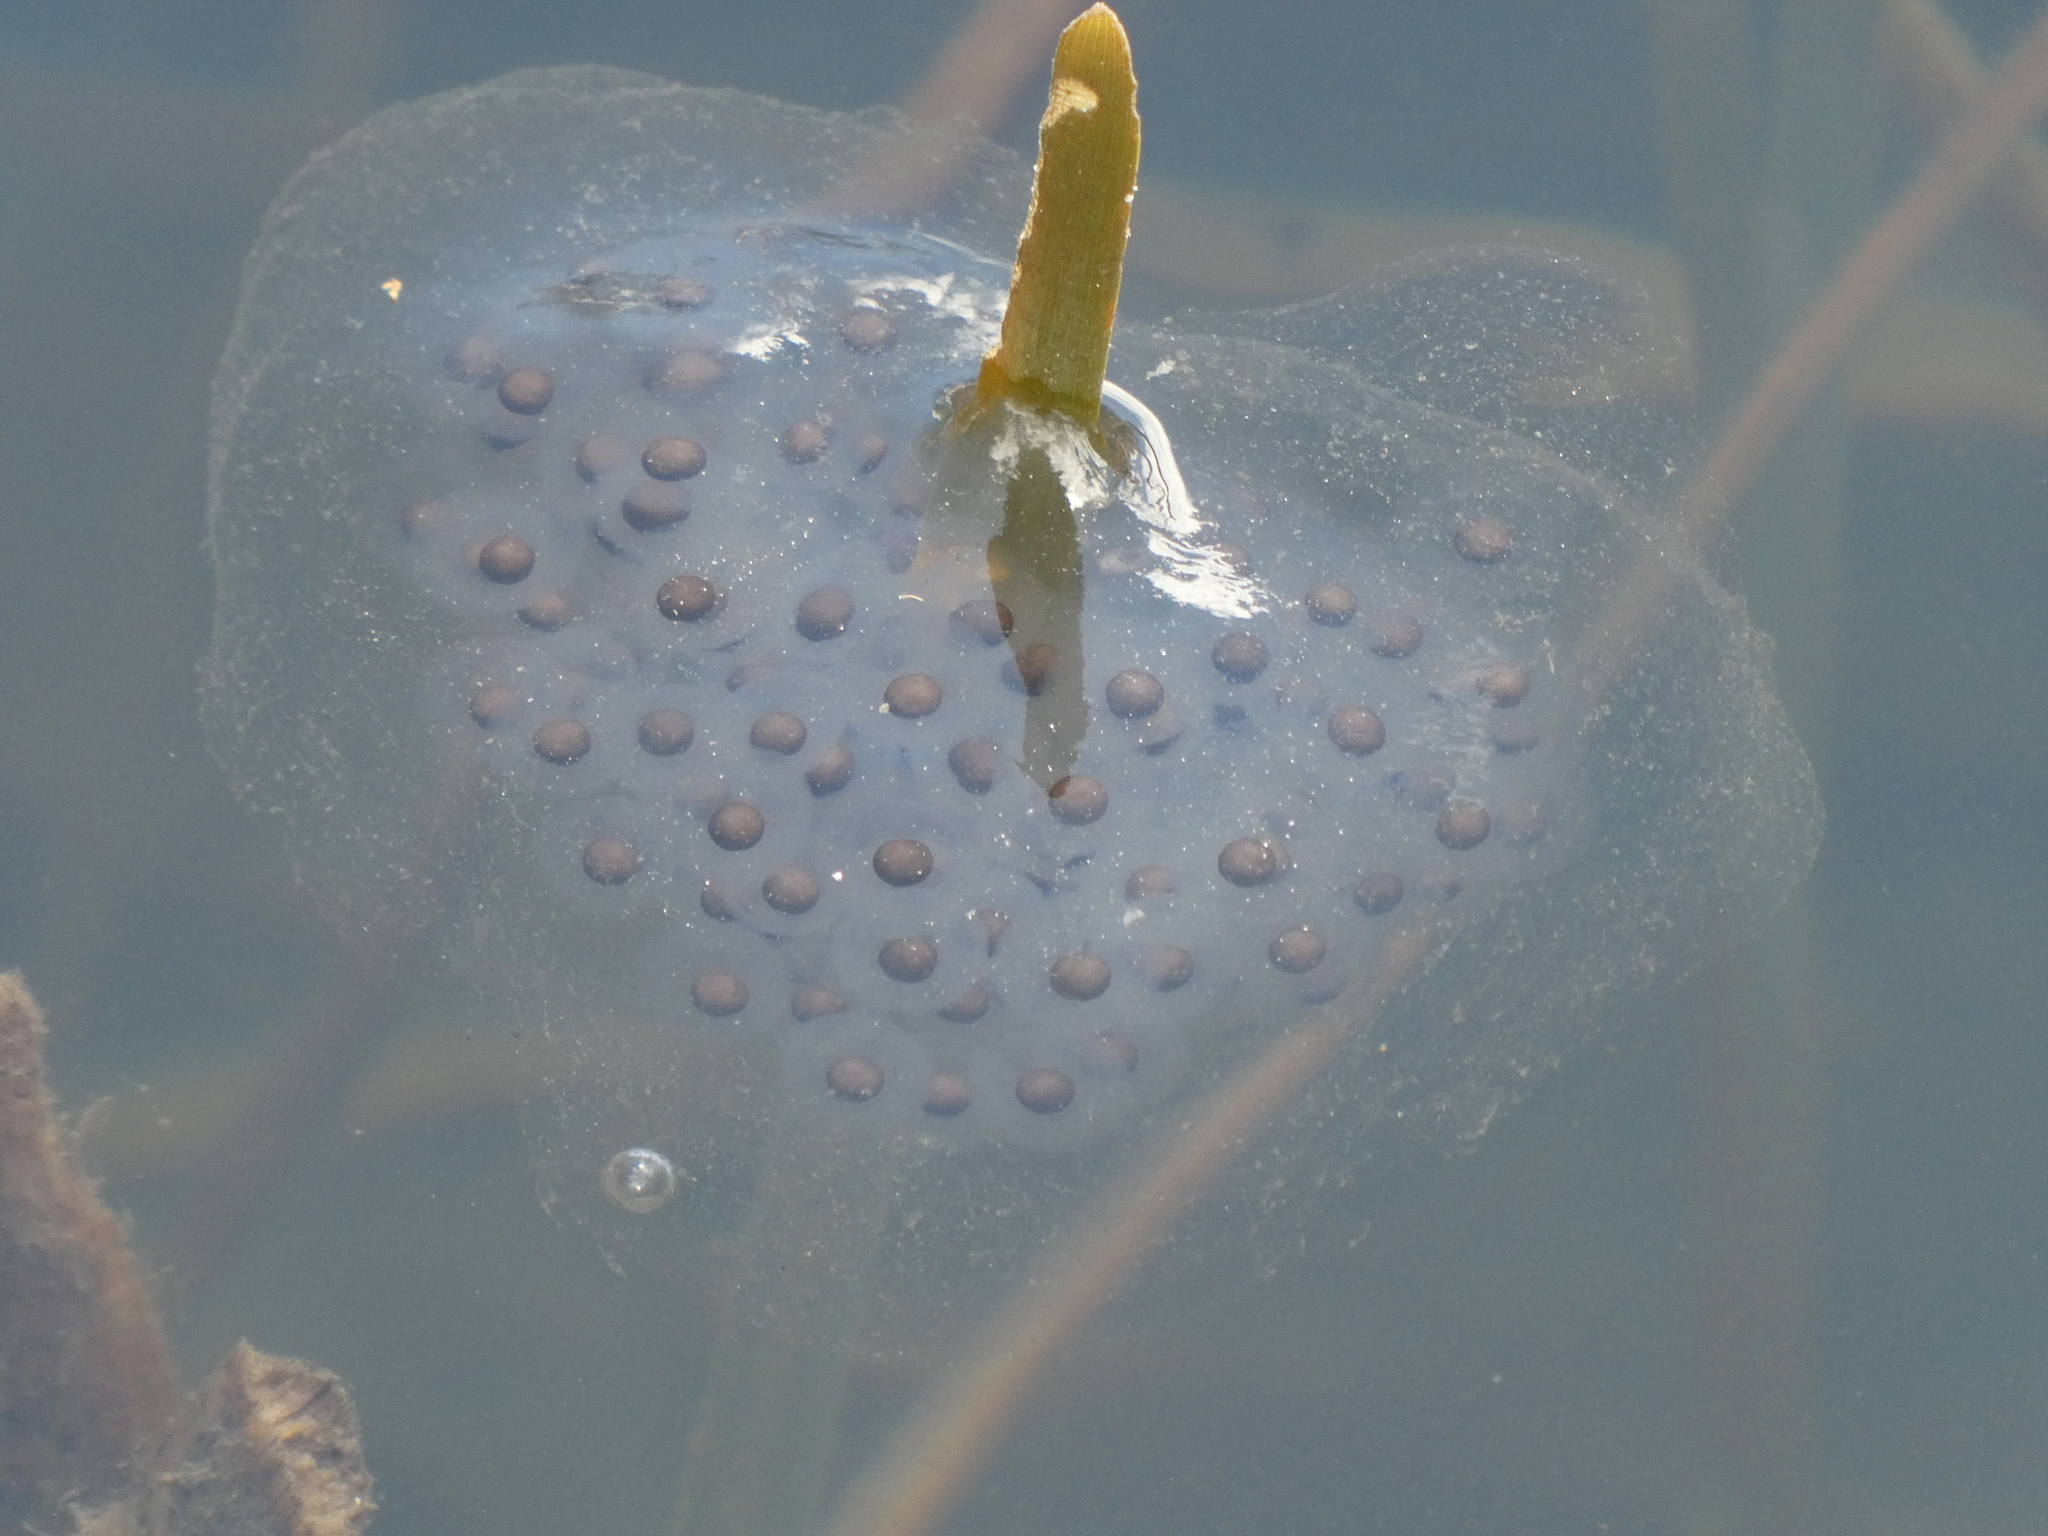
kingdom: Animalia
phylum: Chordata
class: Amphibia
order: Caudata
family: Ambystomatidae
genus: Ambystoma
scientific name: Ambystoma maculatum
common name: Spotted salamander
